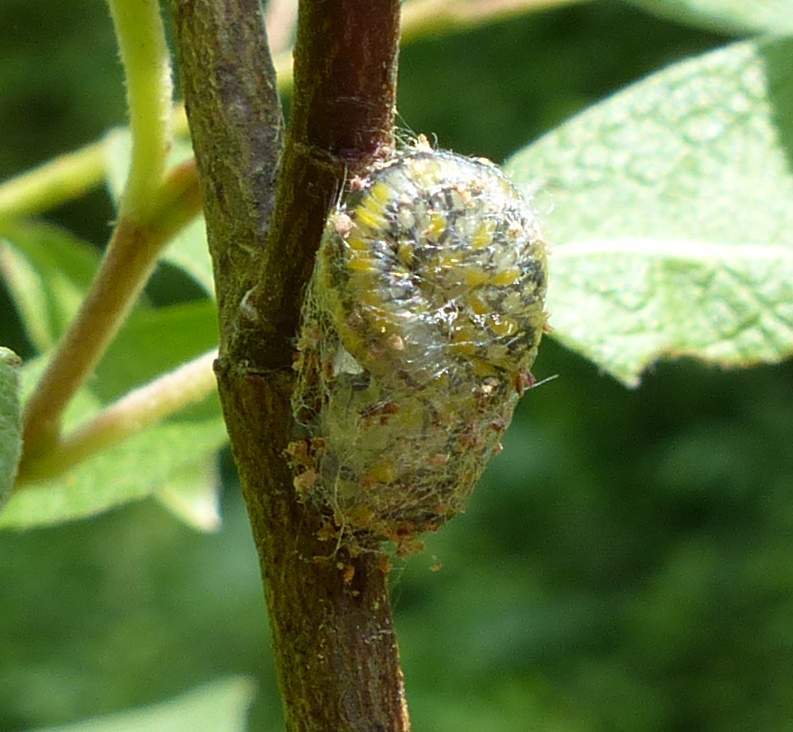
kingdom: Animalia
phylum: Arthropoda
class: Insecta
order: Hymenoptera
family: Diprionidae
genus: Diprion
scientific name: Diprion similis
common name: Pine sawfly
